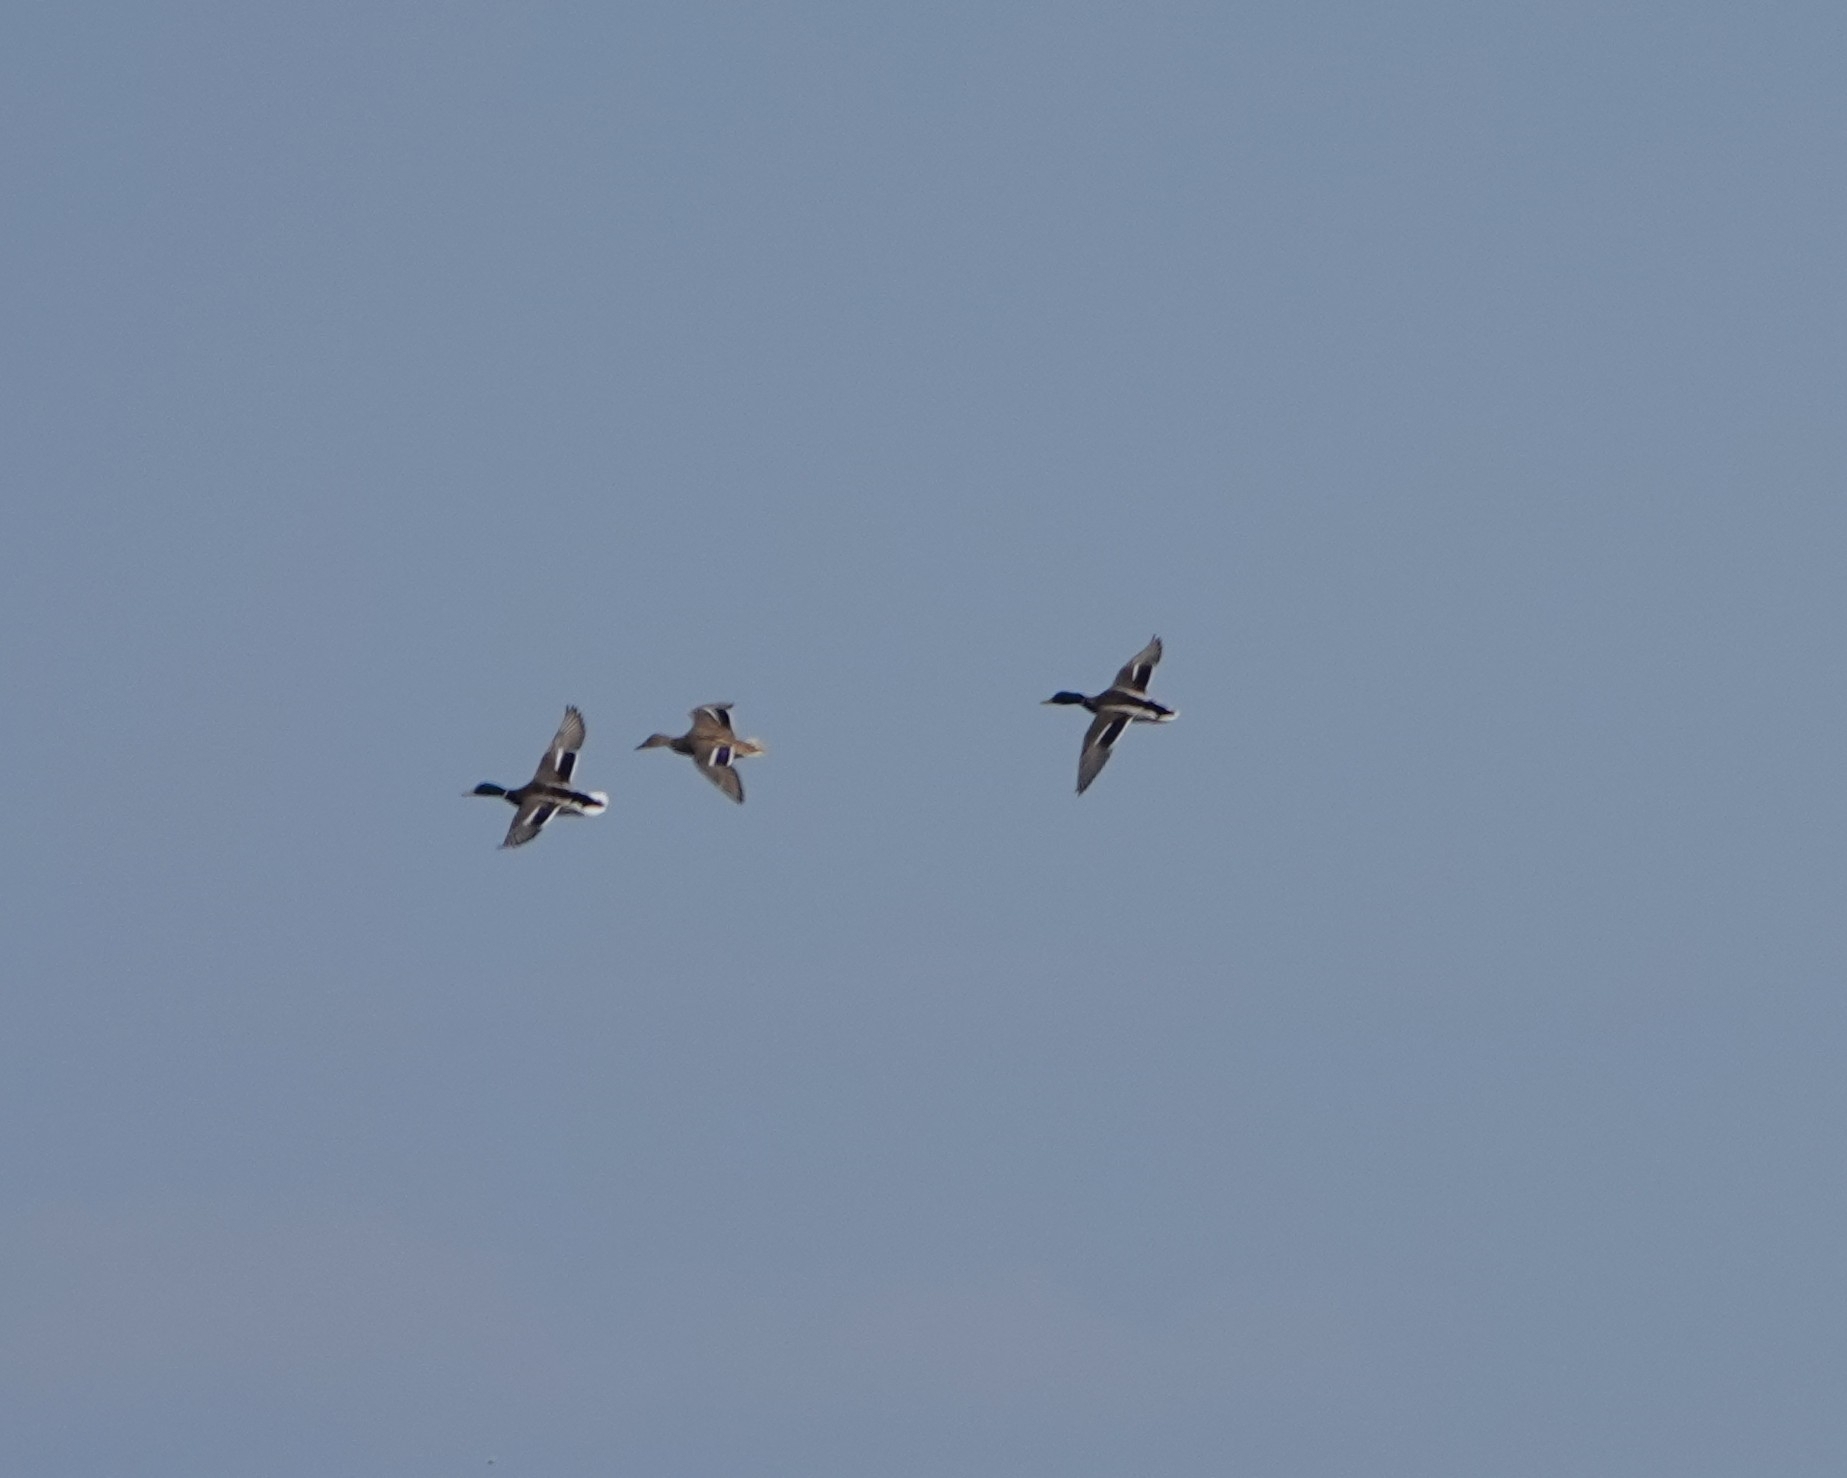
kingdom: Animalia
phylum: Chordata
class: Aves
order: Anseriformes
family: Anatidae
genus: Anas
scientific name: Anas platyrhynchos
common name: Mallard
